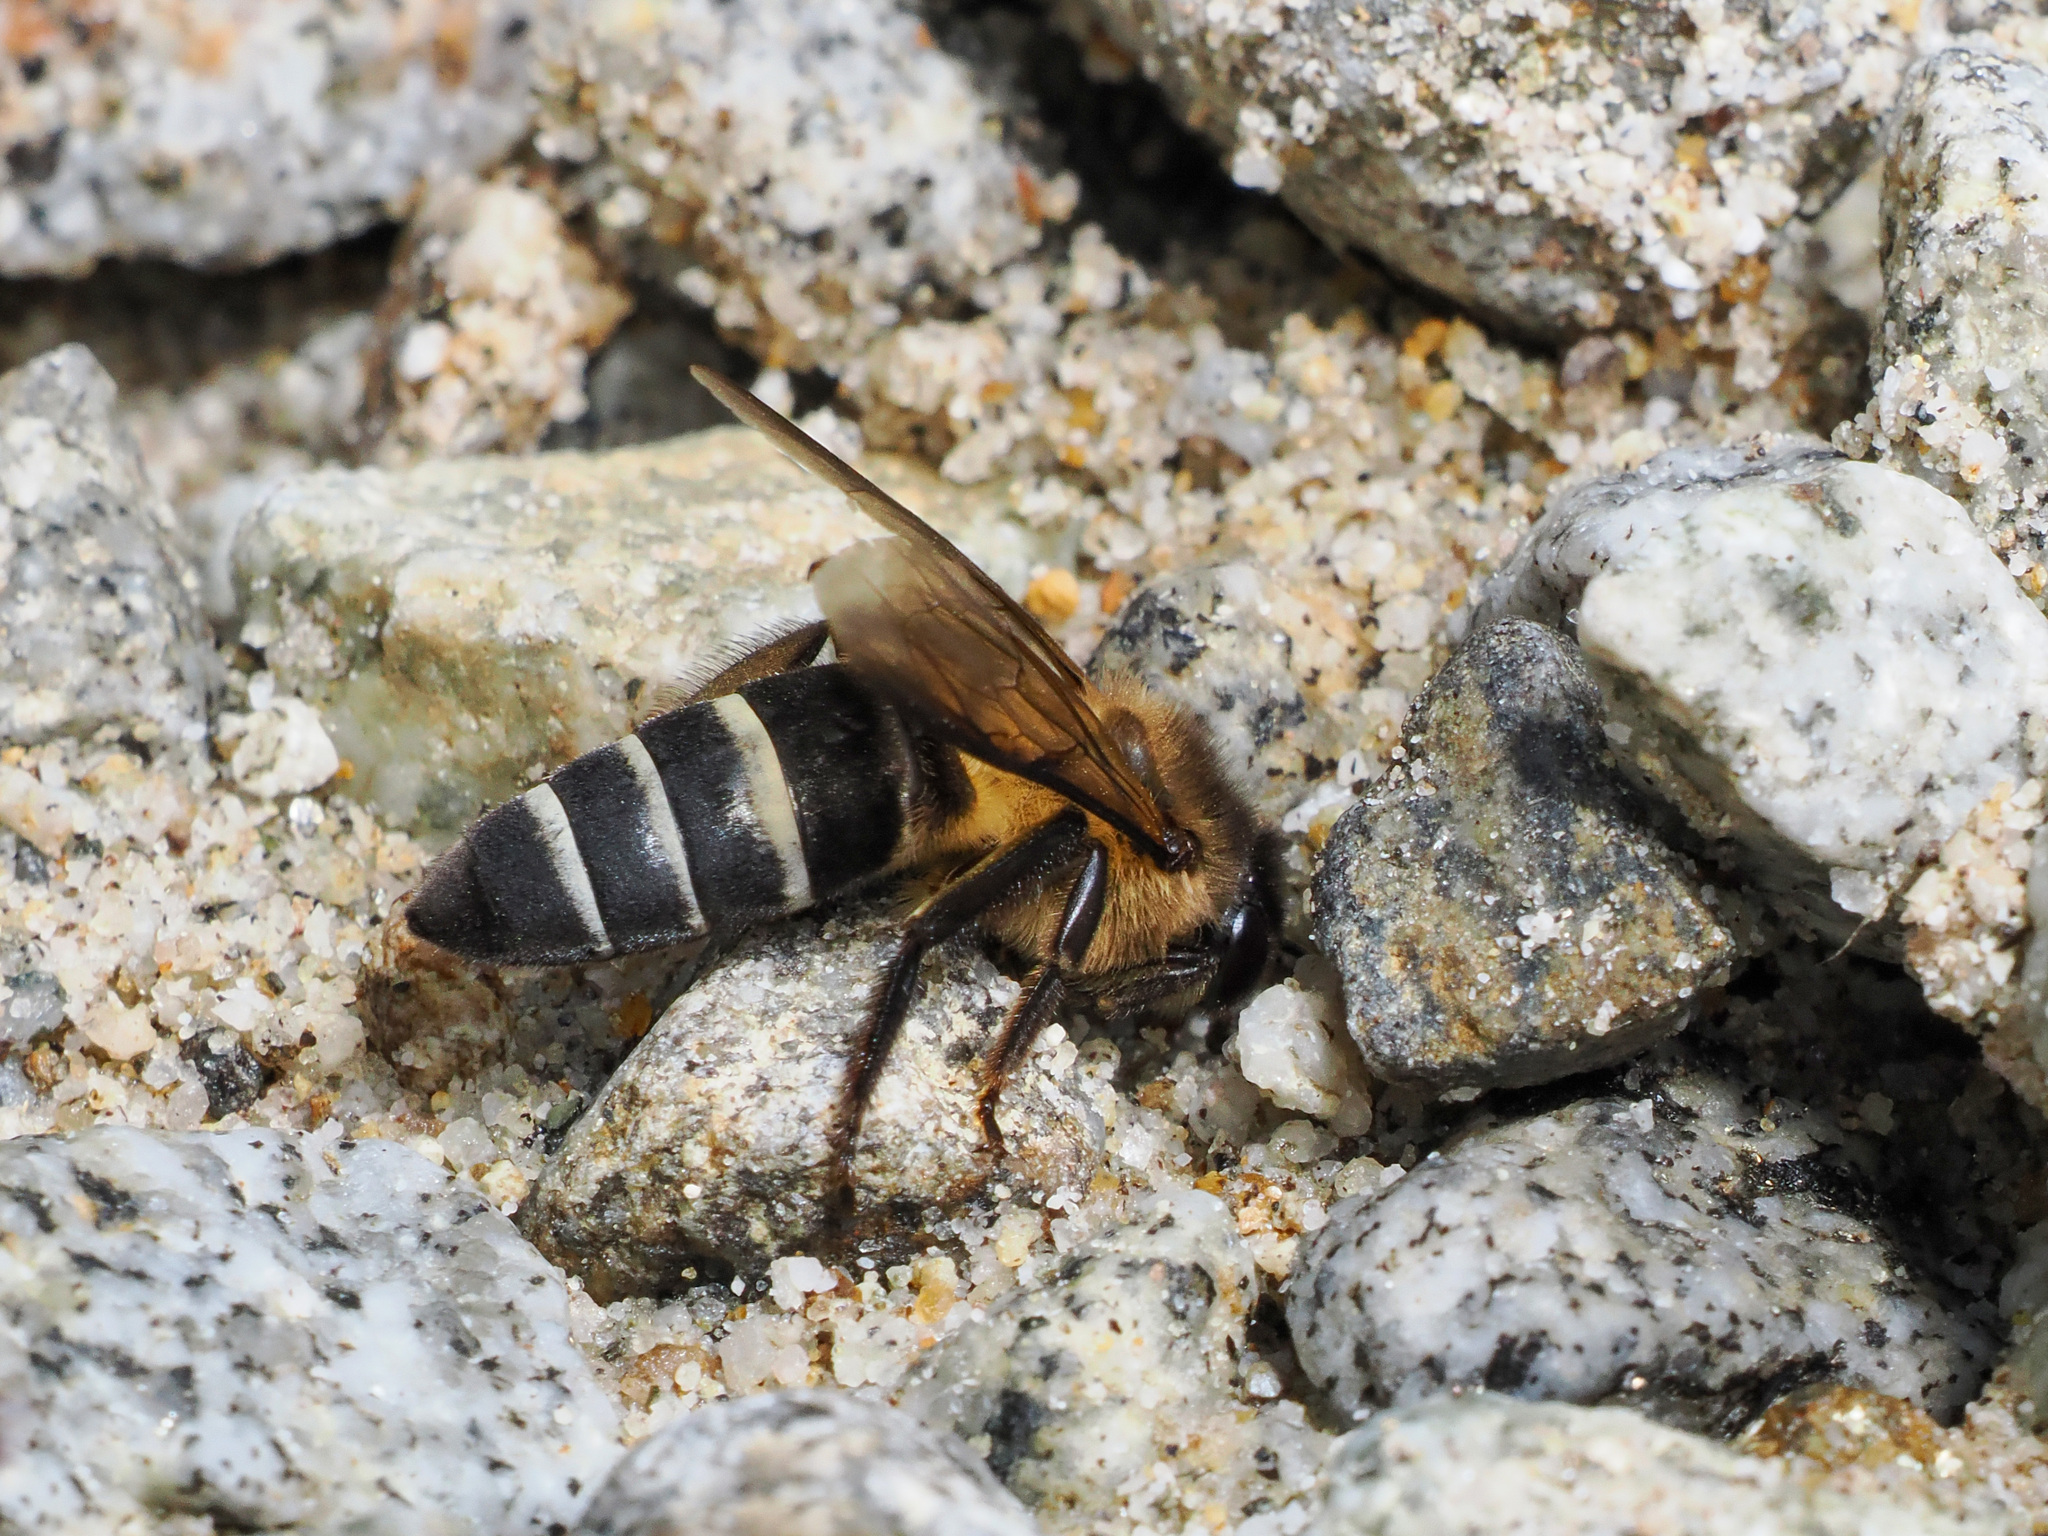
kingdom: Animalia
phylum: Arthropoda
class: Insecta
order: Hymenoptera
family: Apidae
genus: Apis
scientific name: Apis dorsata
